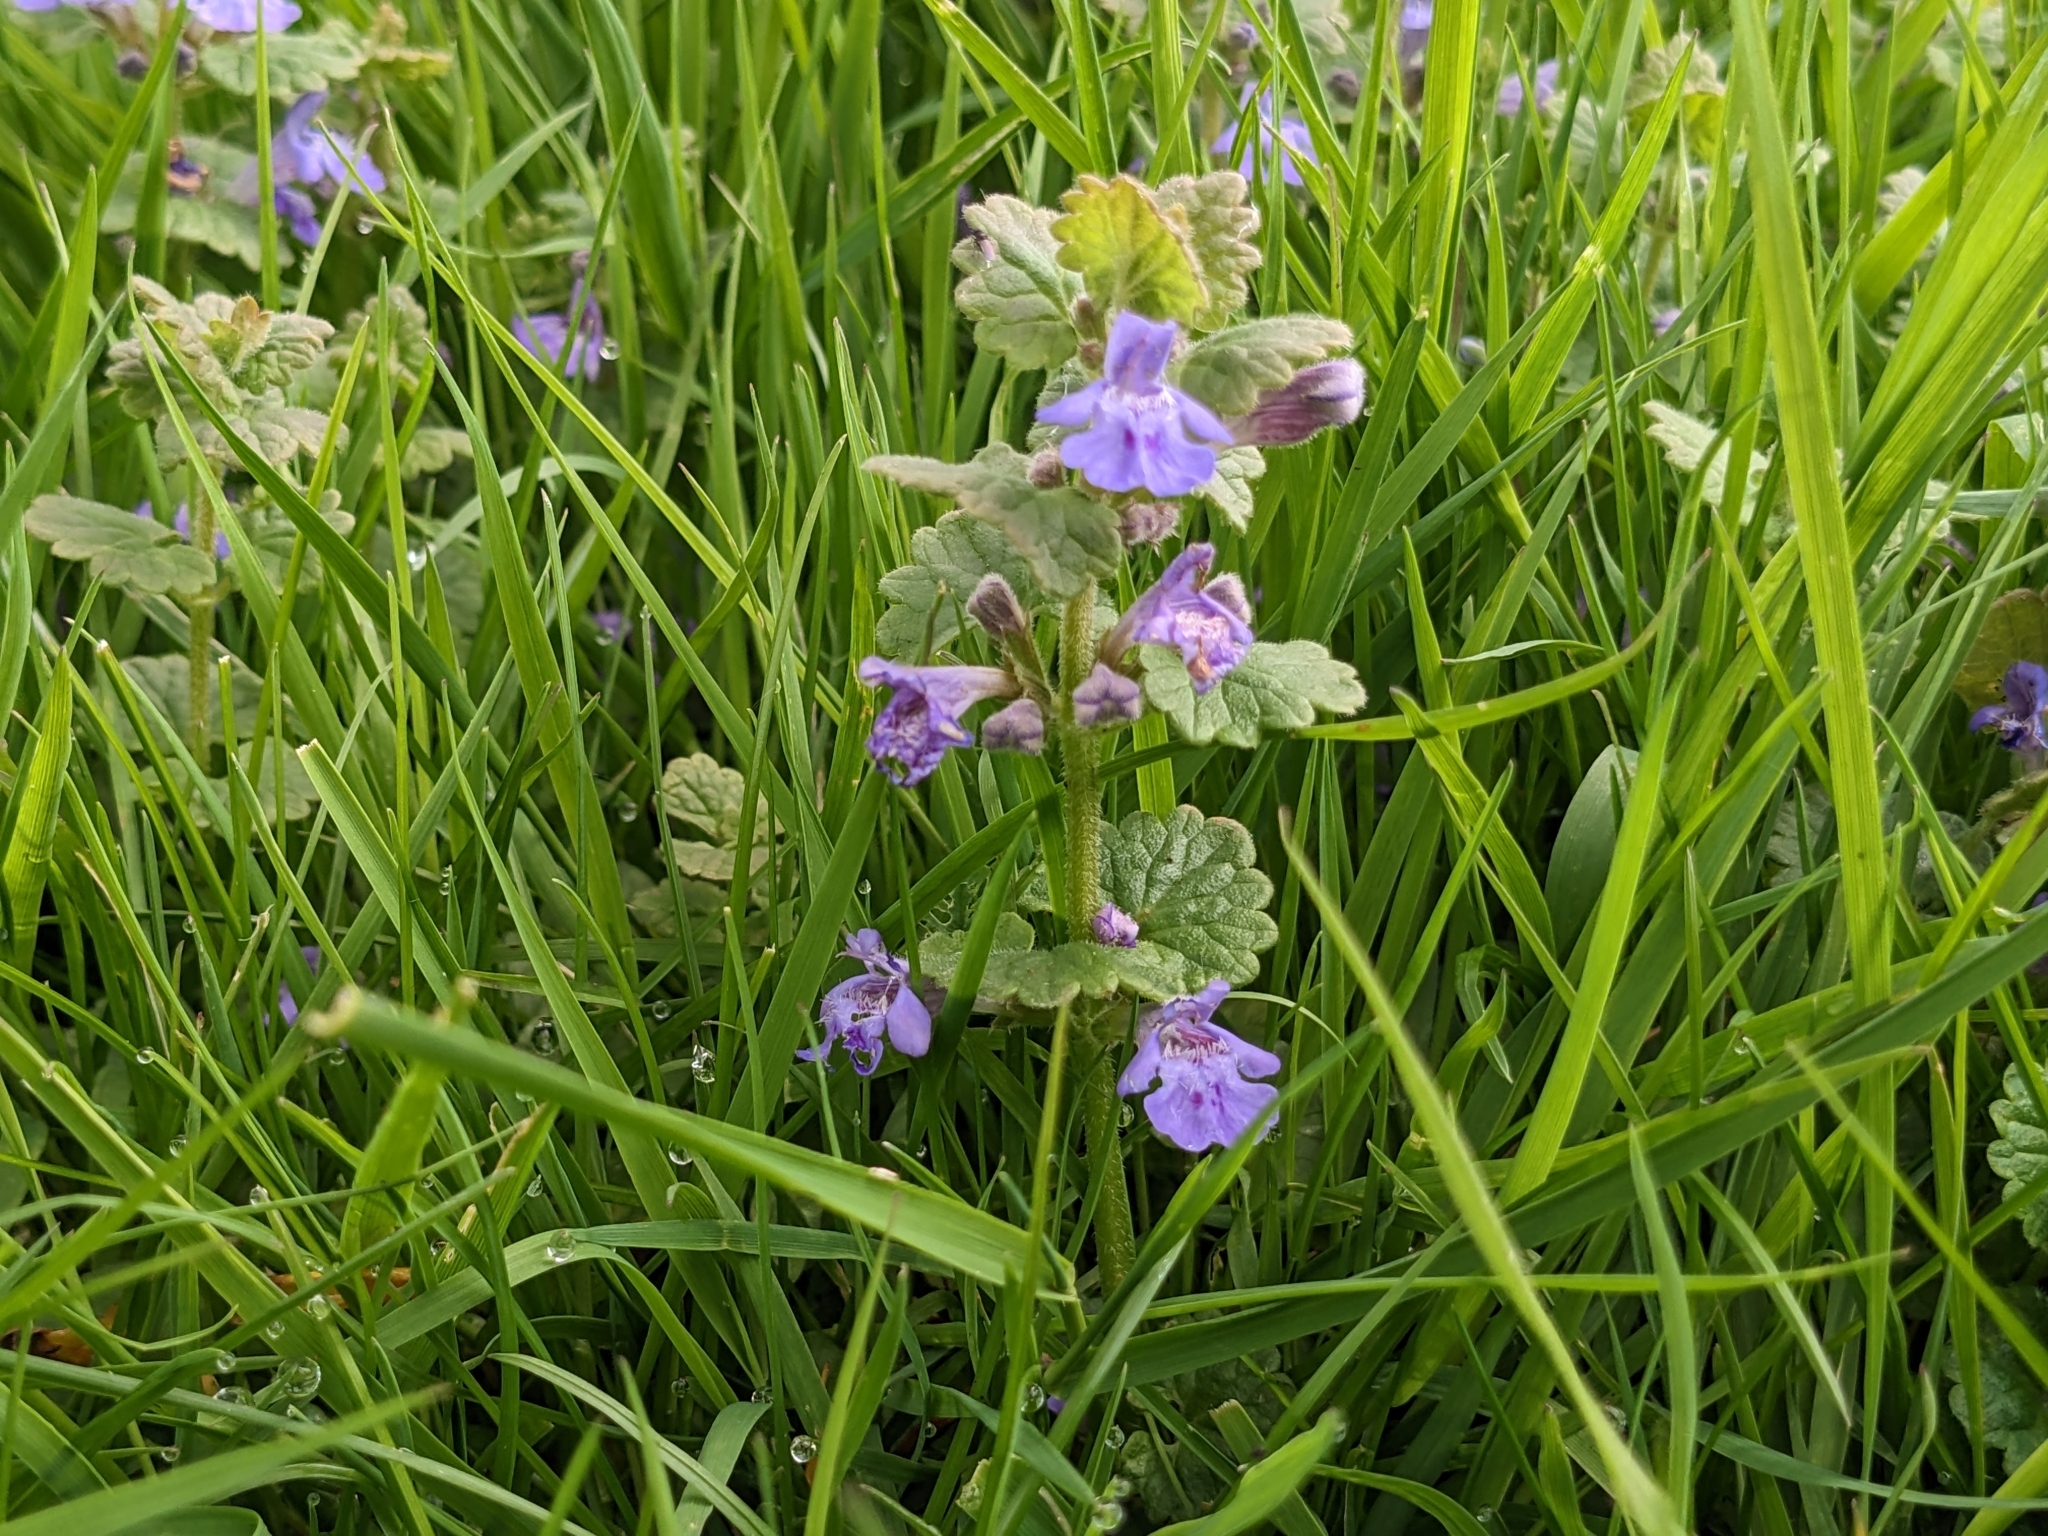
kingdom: Plantae
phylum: Tracheophyta
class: Magnoliopsida
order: Lamiales
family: Lamiaceae
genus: Glechoma
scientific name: Glechoma hederacea
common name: Ground ivy
